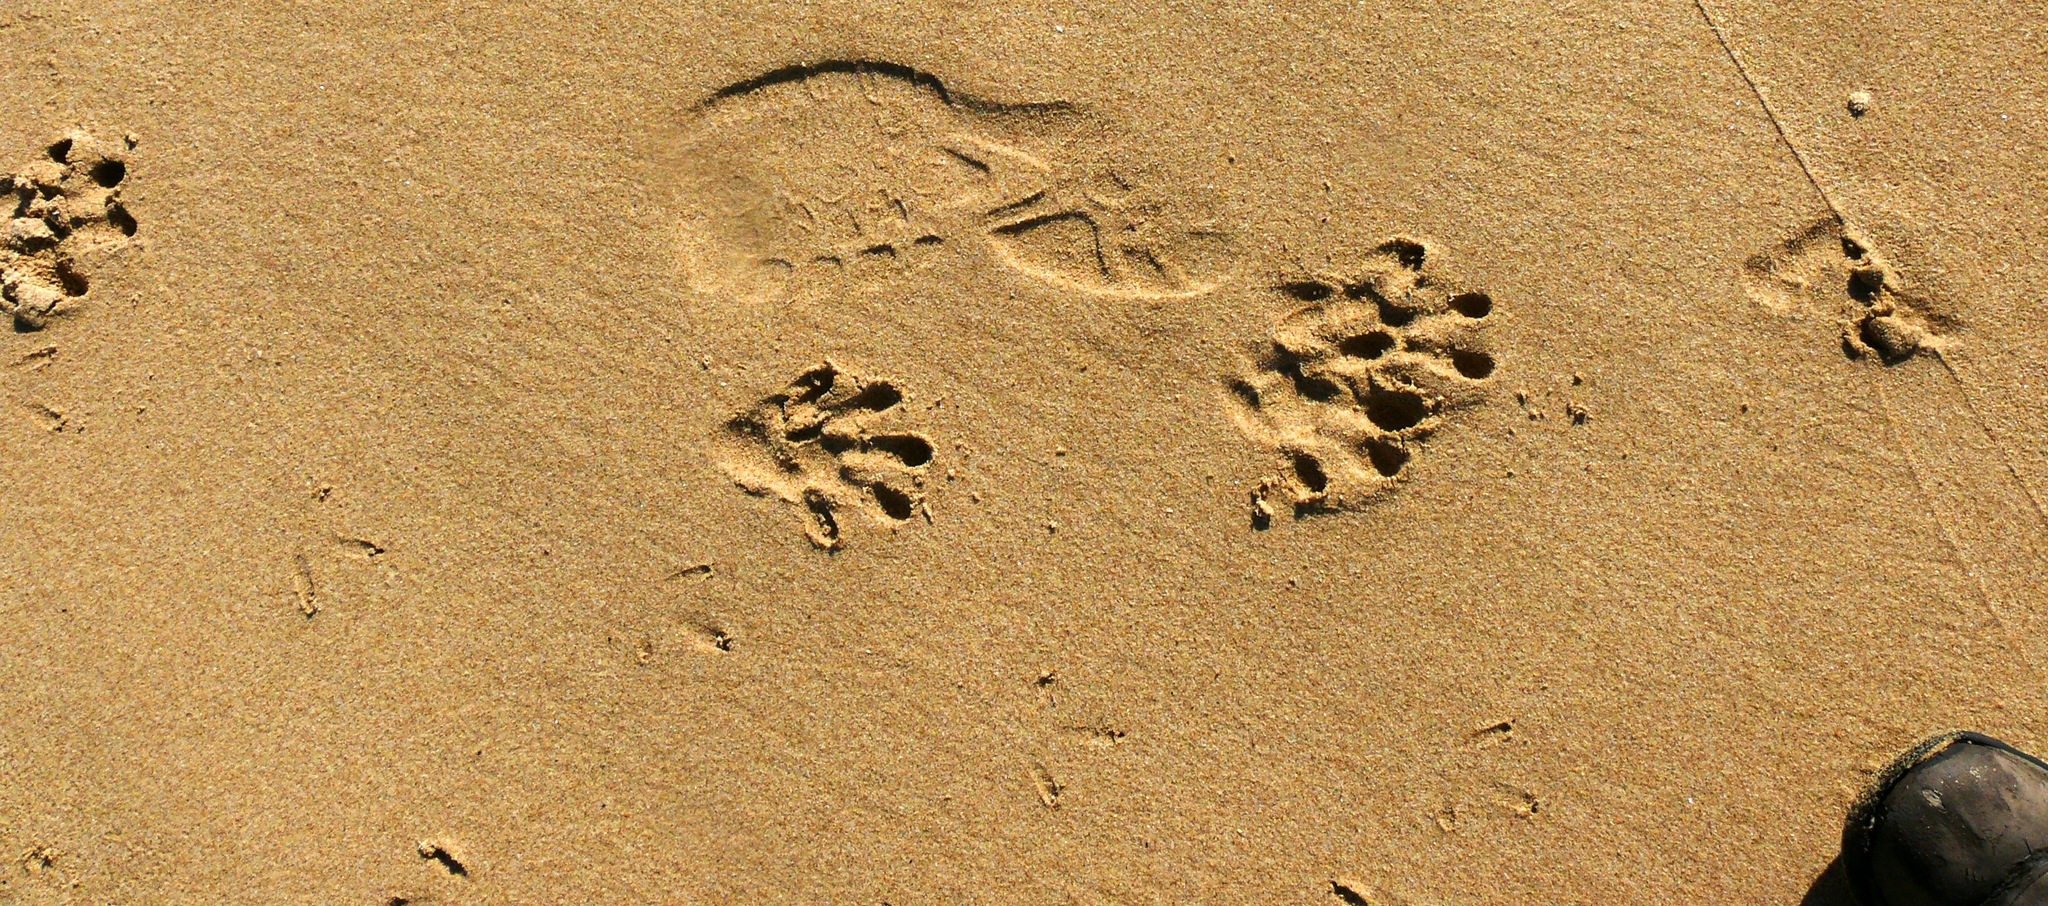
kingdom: Animalia
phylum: Chordata
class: Mammalia
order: Carnivora
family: Mustelidae
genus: Aonyx
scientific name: Aonyx capensis
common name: African clawless otter
